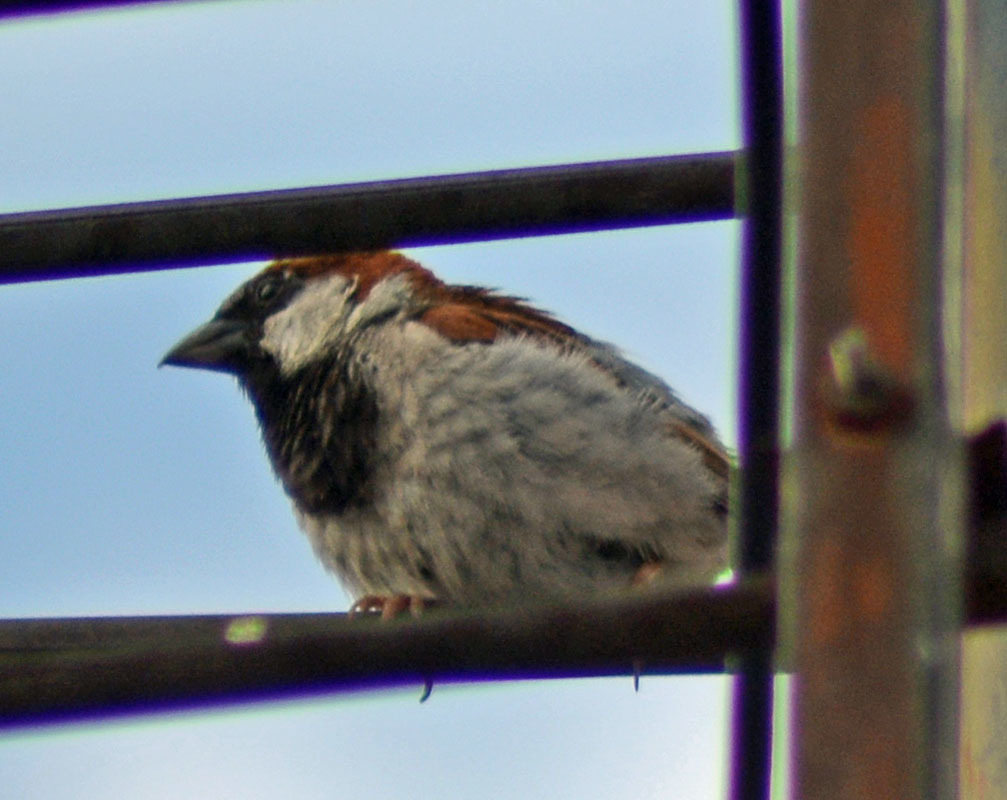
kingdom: Animalia
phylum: Chordata
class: Aves
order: Passeriformes
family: Passeridae
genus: Passer
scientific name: Passer domesticus
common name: House sparrow
